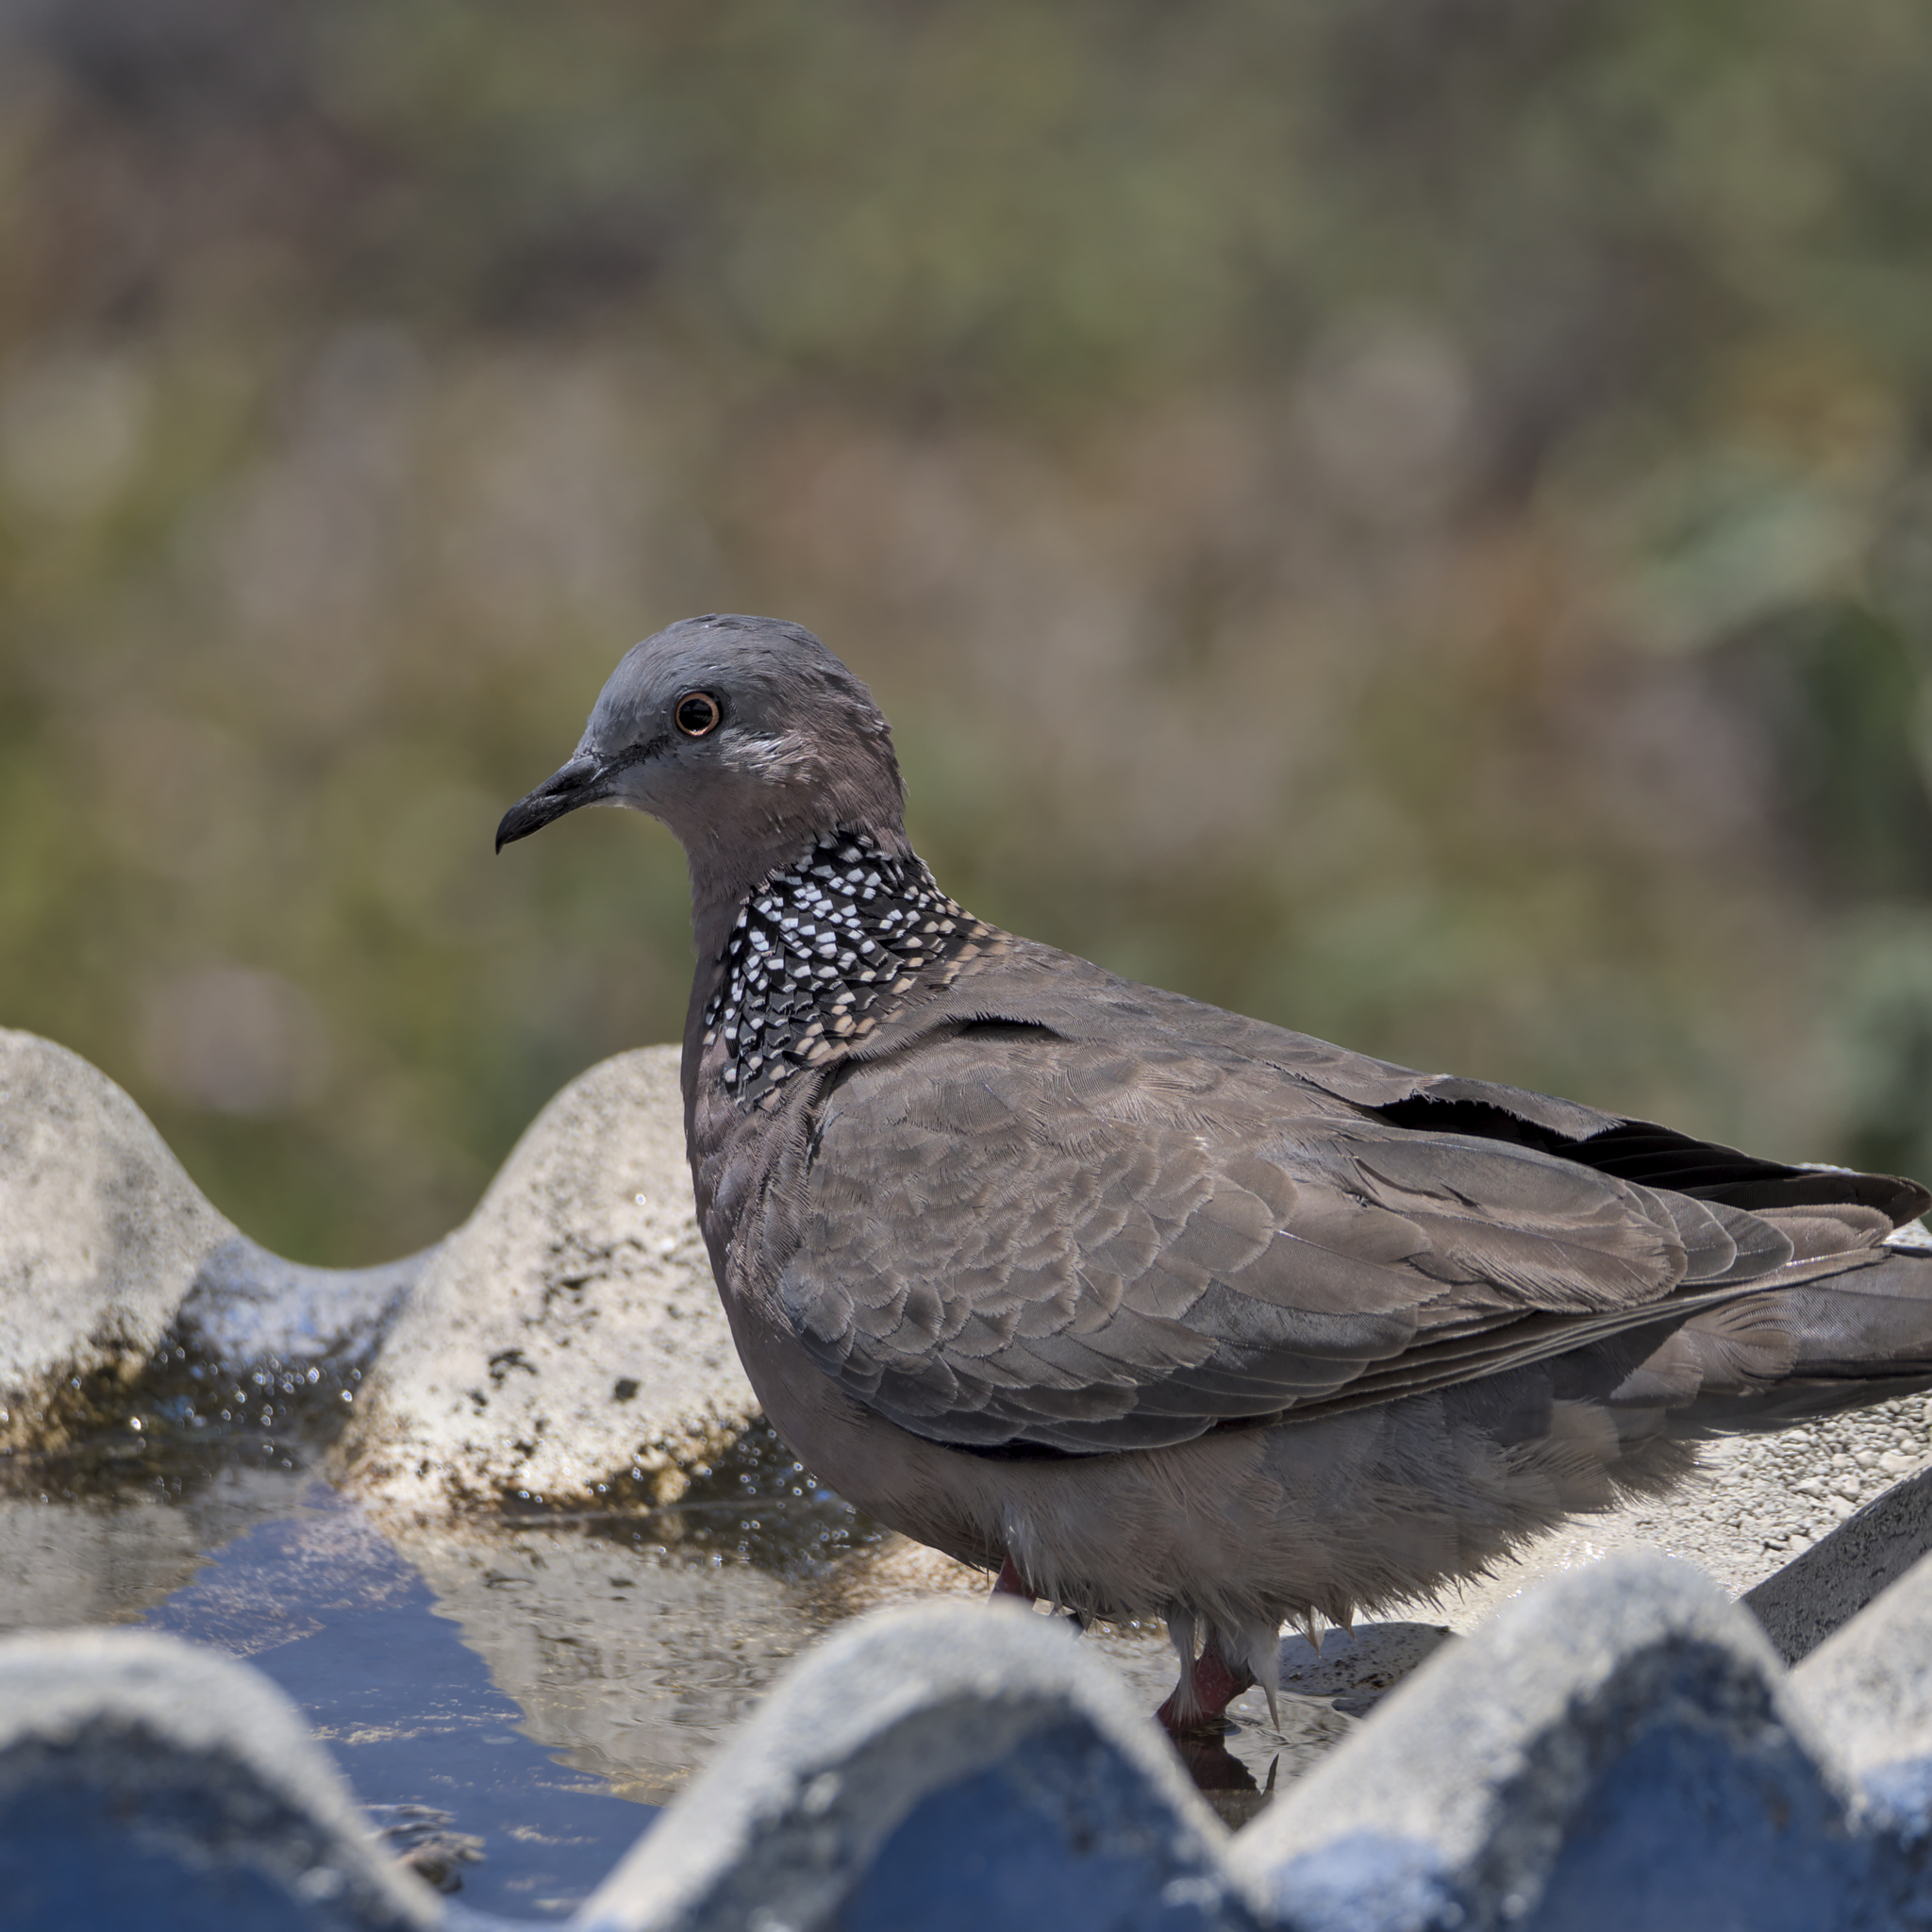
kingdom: Animalia
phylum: Chordata
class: Aves
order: Columbiformes
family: Columbidae
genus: Spilopelia
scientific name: Spilopelia chinensis
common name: Spotted dove
